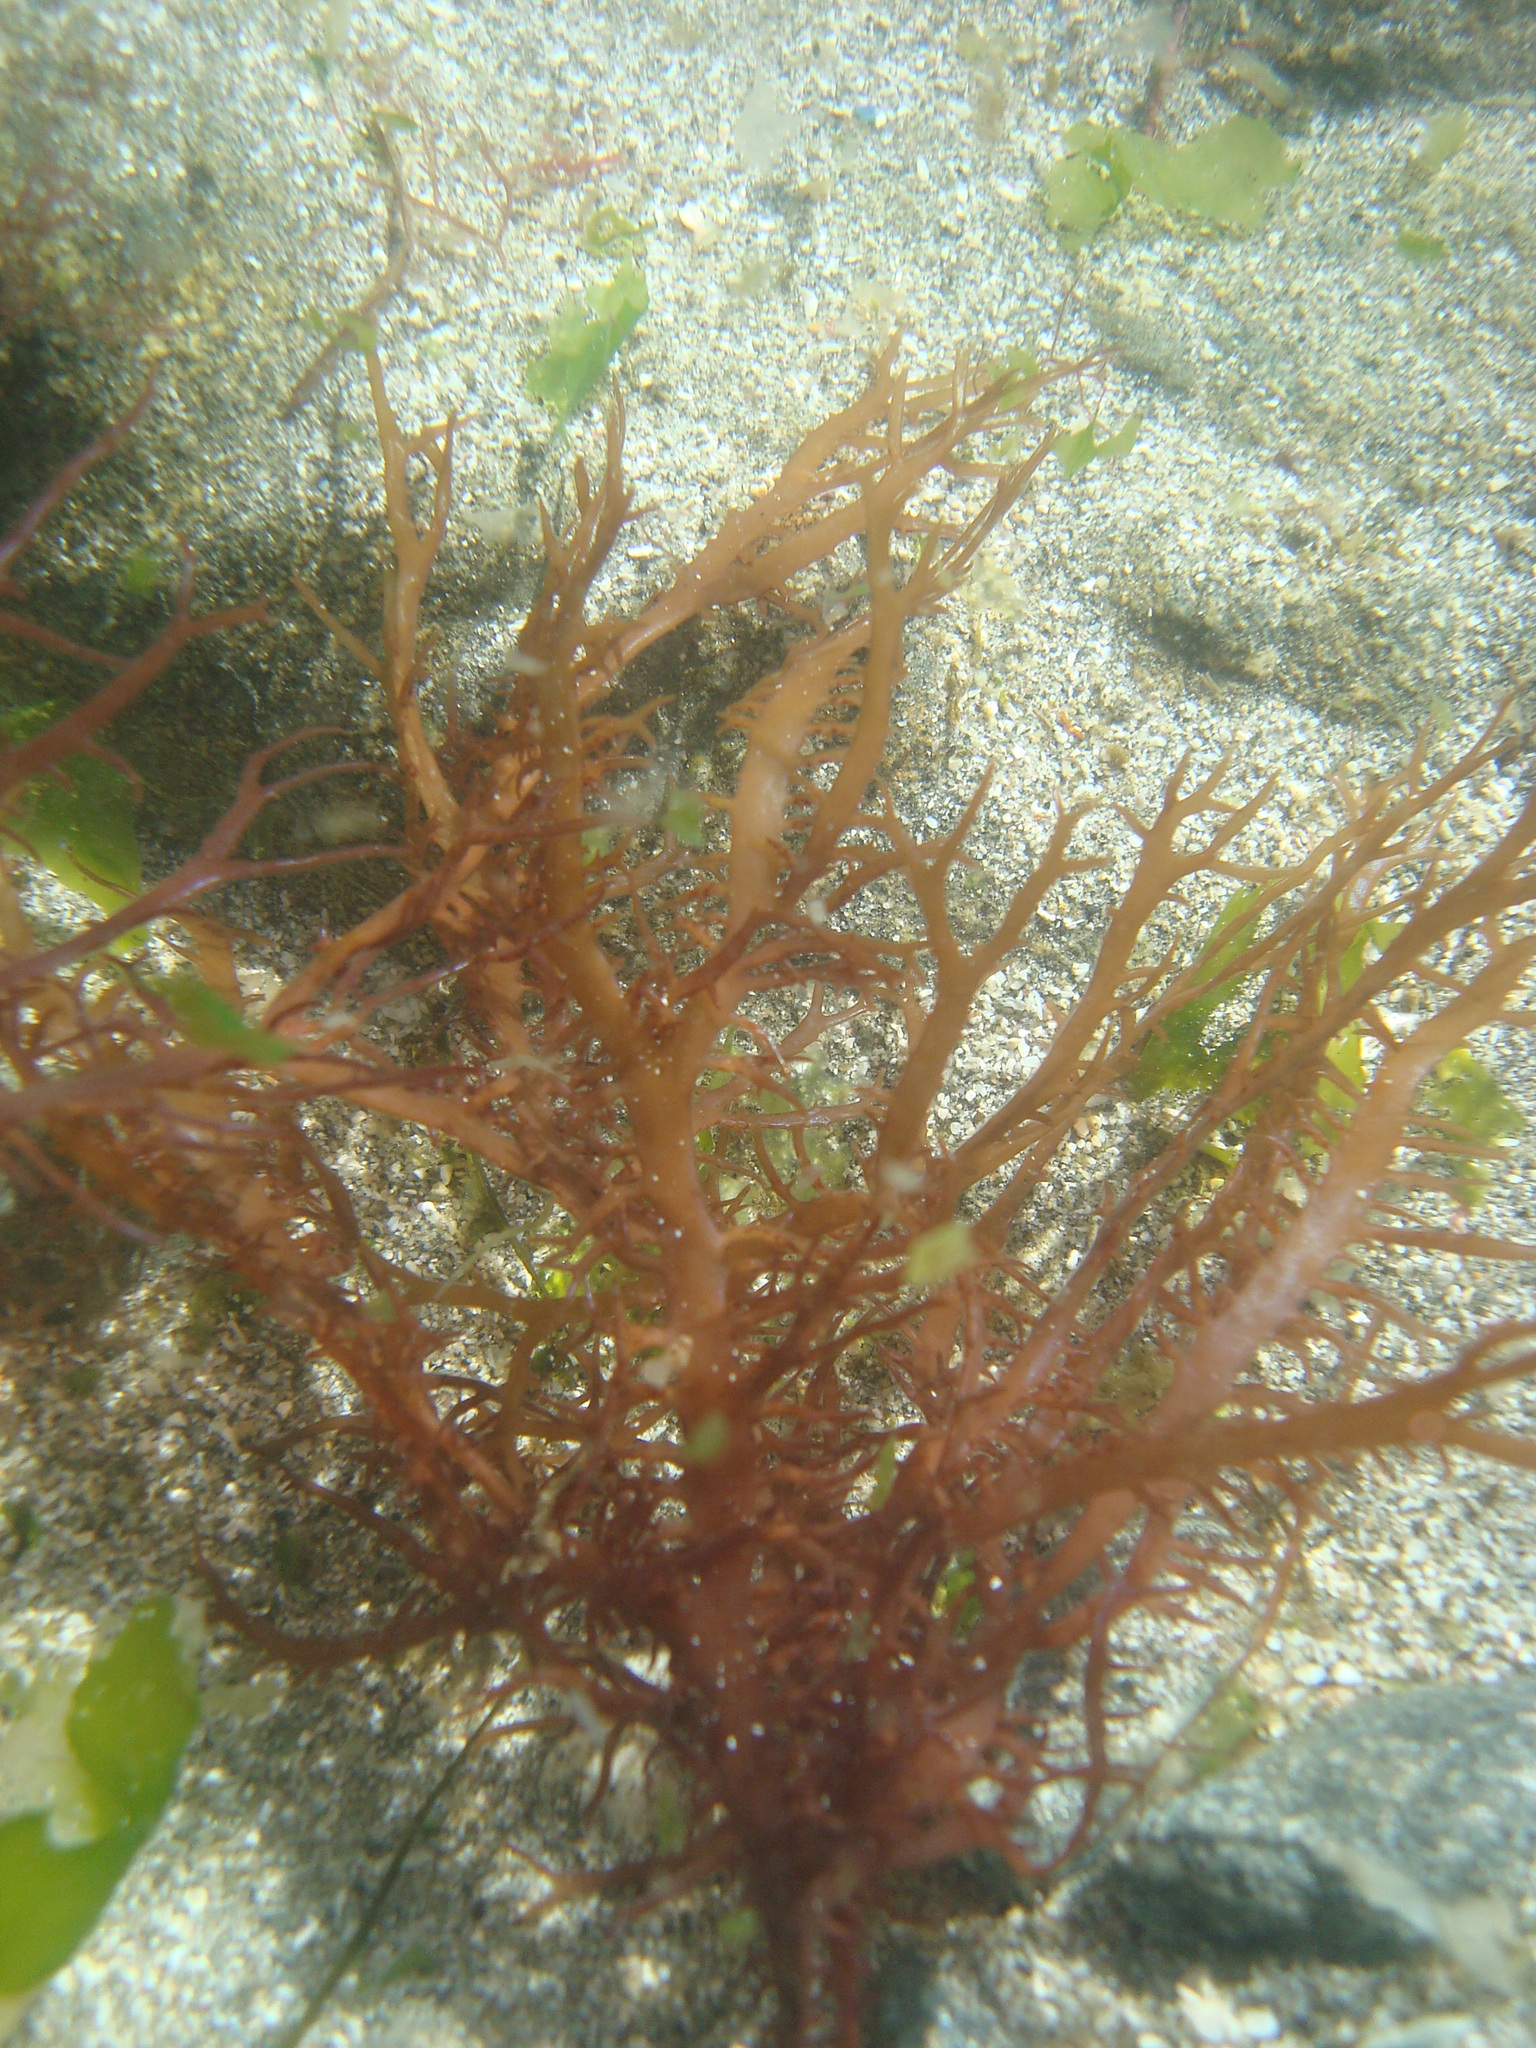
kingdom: Plantae
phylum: Rhodophyta
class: Florideophyceae
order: Gigartinales
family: Gigartinaceae
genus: Chondracanthus
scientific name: Chondracanthus chamissoi
